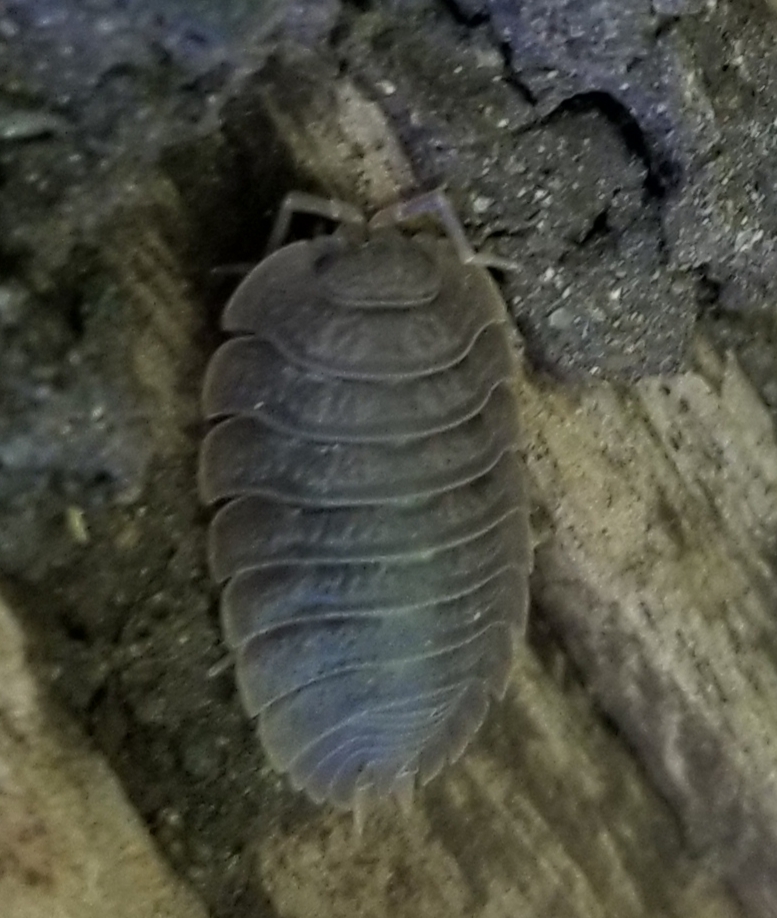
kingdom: Animalia
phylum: Arthropoda
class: Malacostraca
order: Isopoda
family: Porcellionidae
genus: Porcellio
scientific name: Porcellio dilatatus
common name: Isopod
